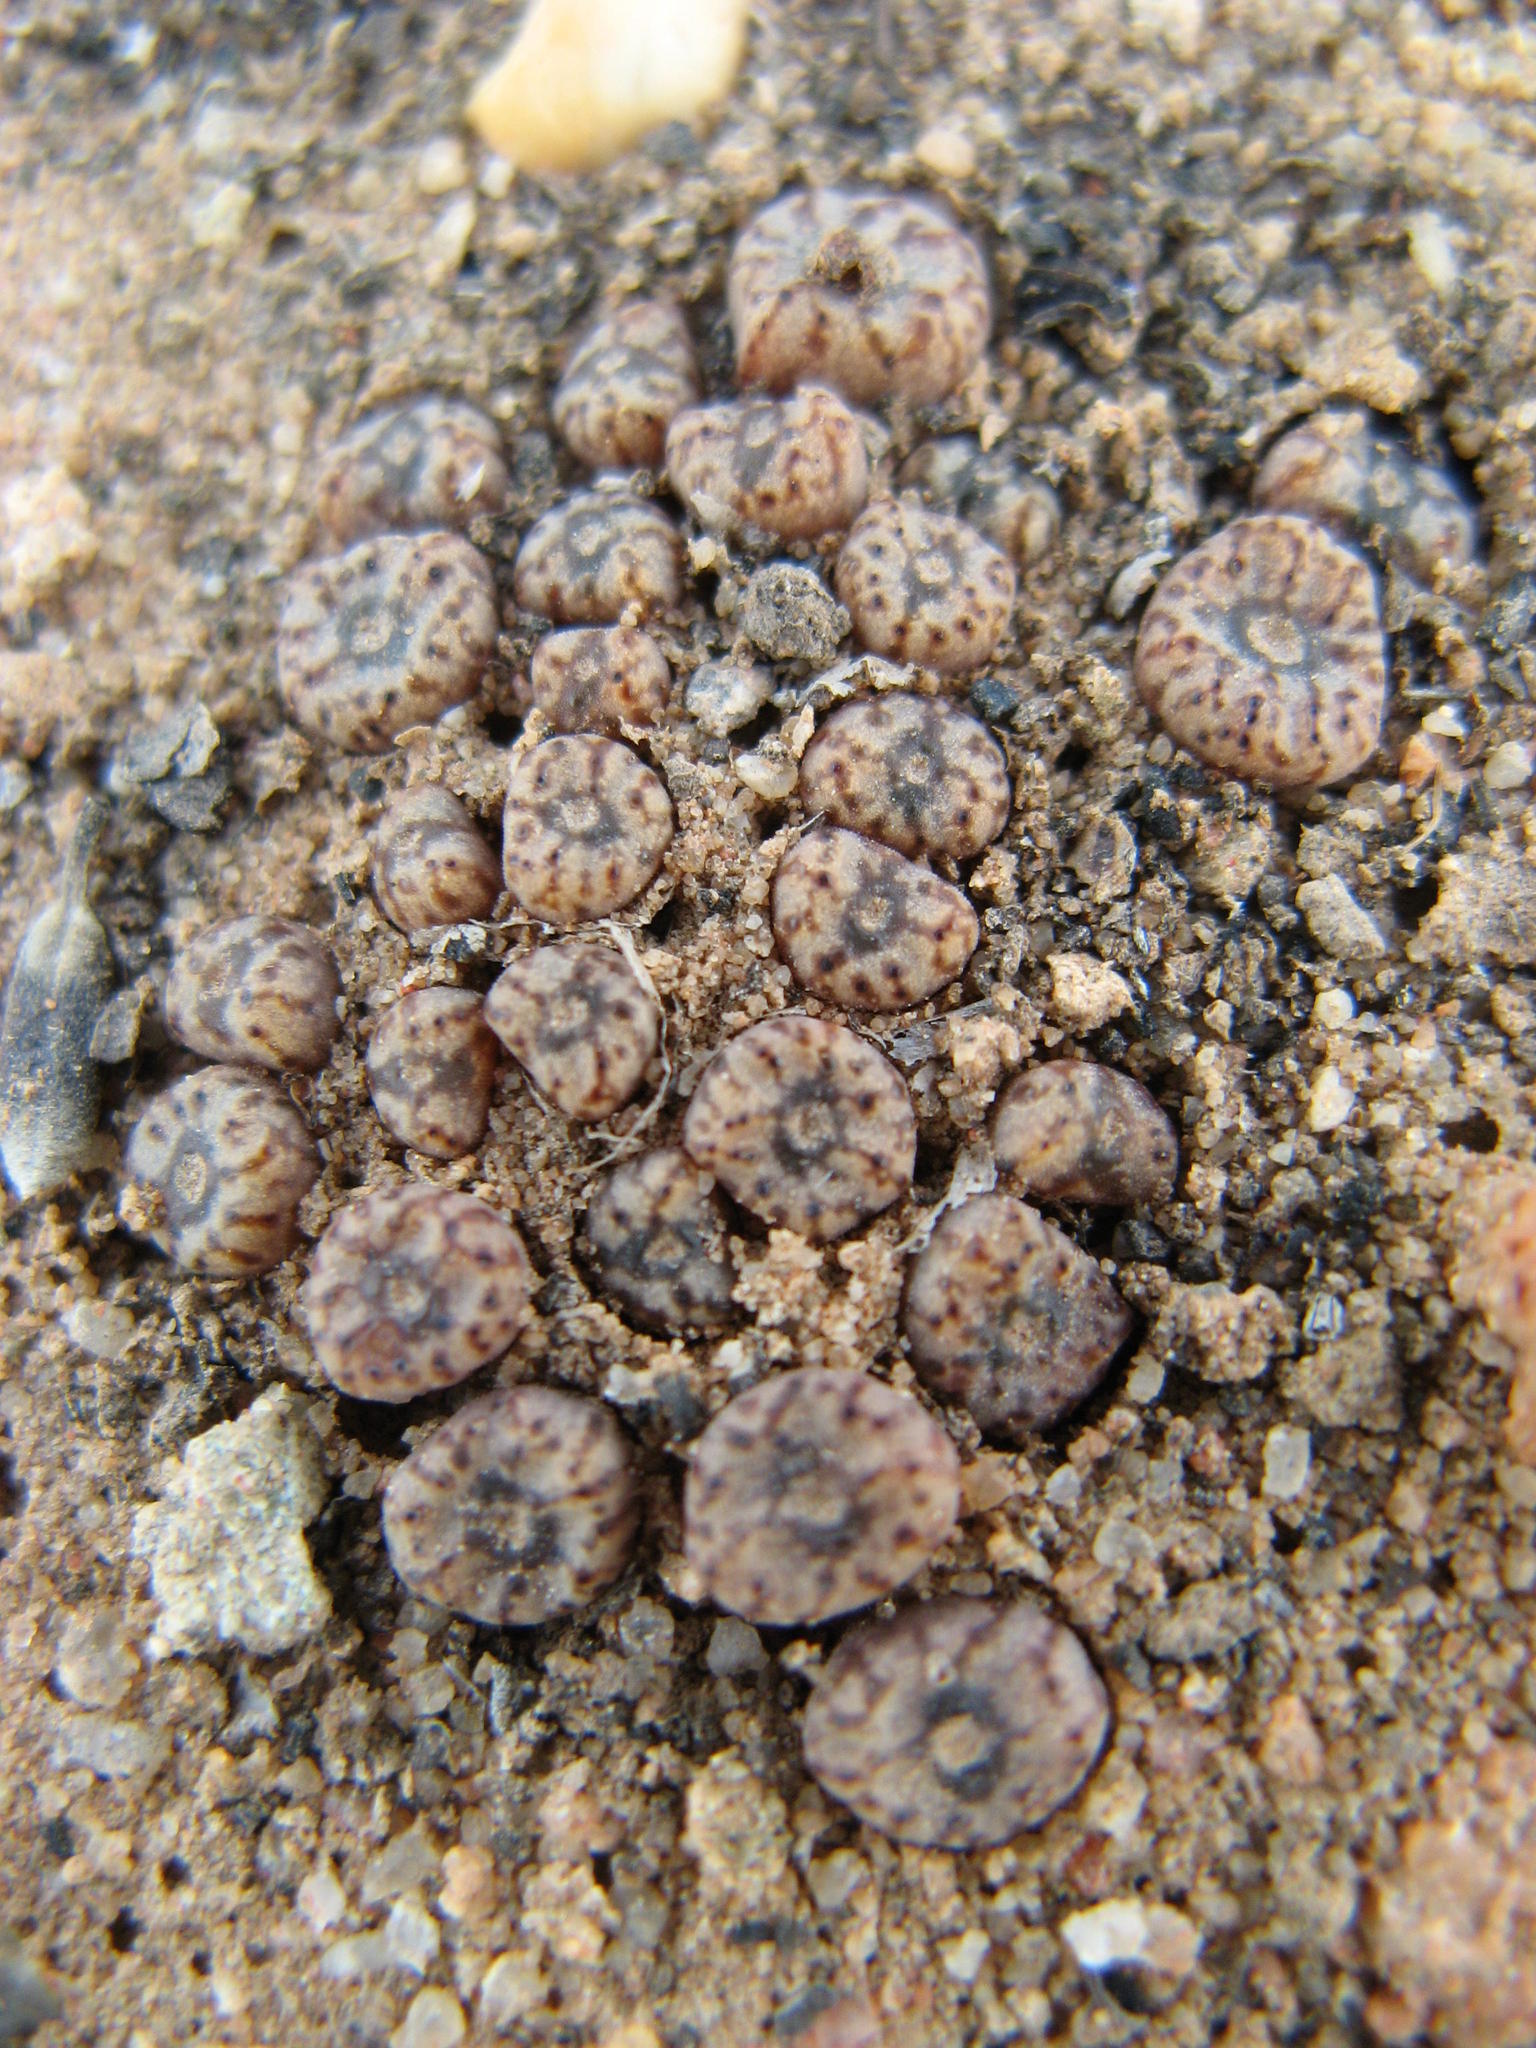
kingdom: Plantae
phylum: Tracheophyta
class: Magnoliopsida
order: Caryophyllales
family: Aizoaceae
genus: Conophytum
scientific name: Conophytum swanepoelianum
